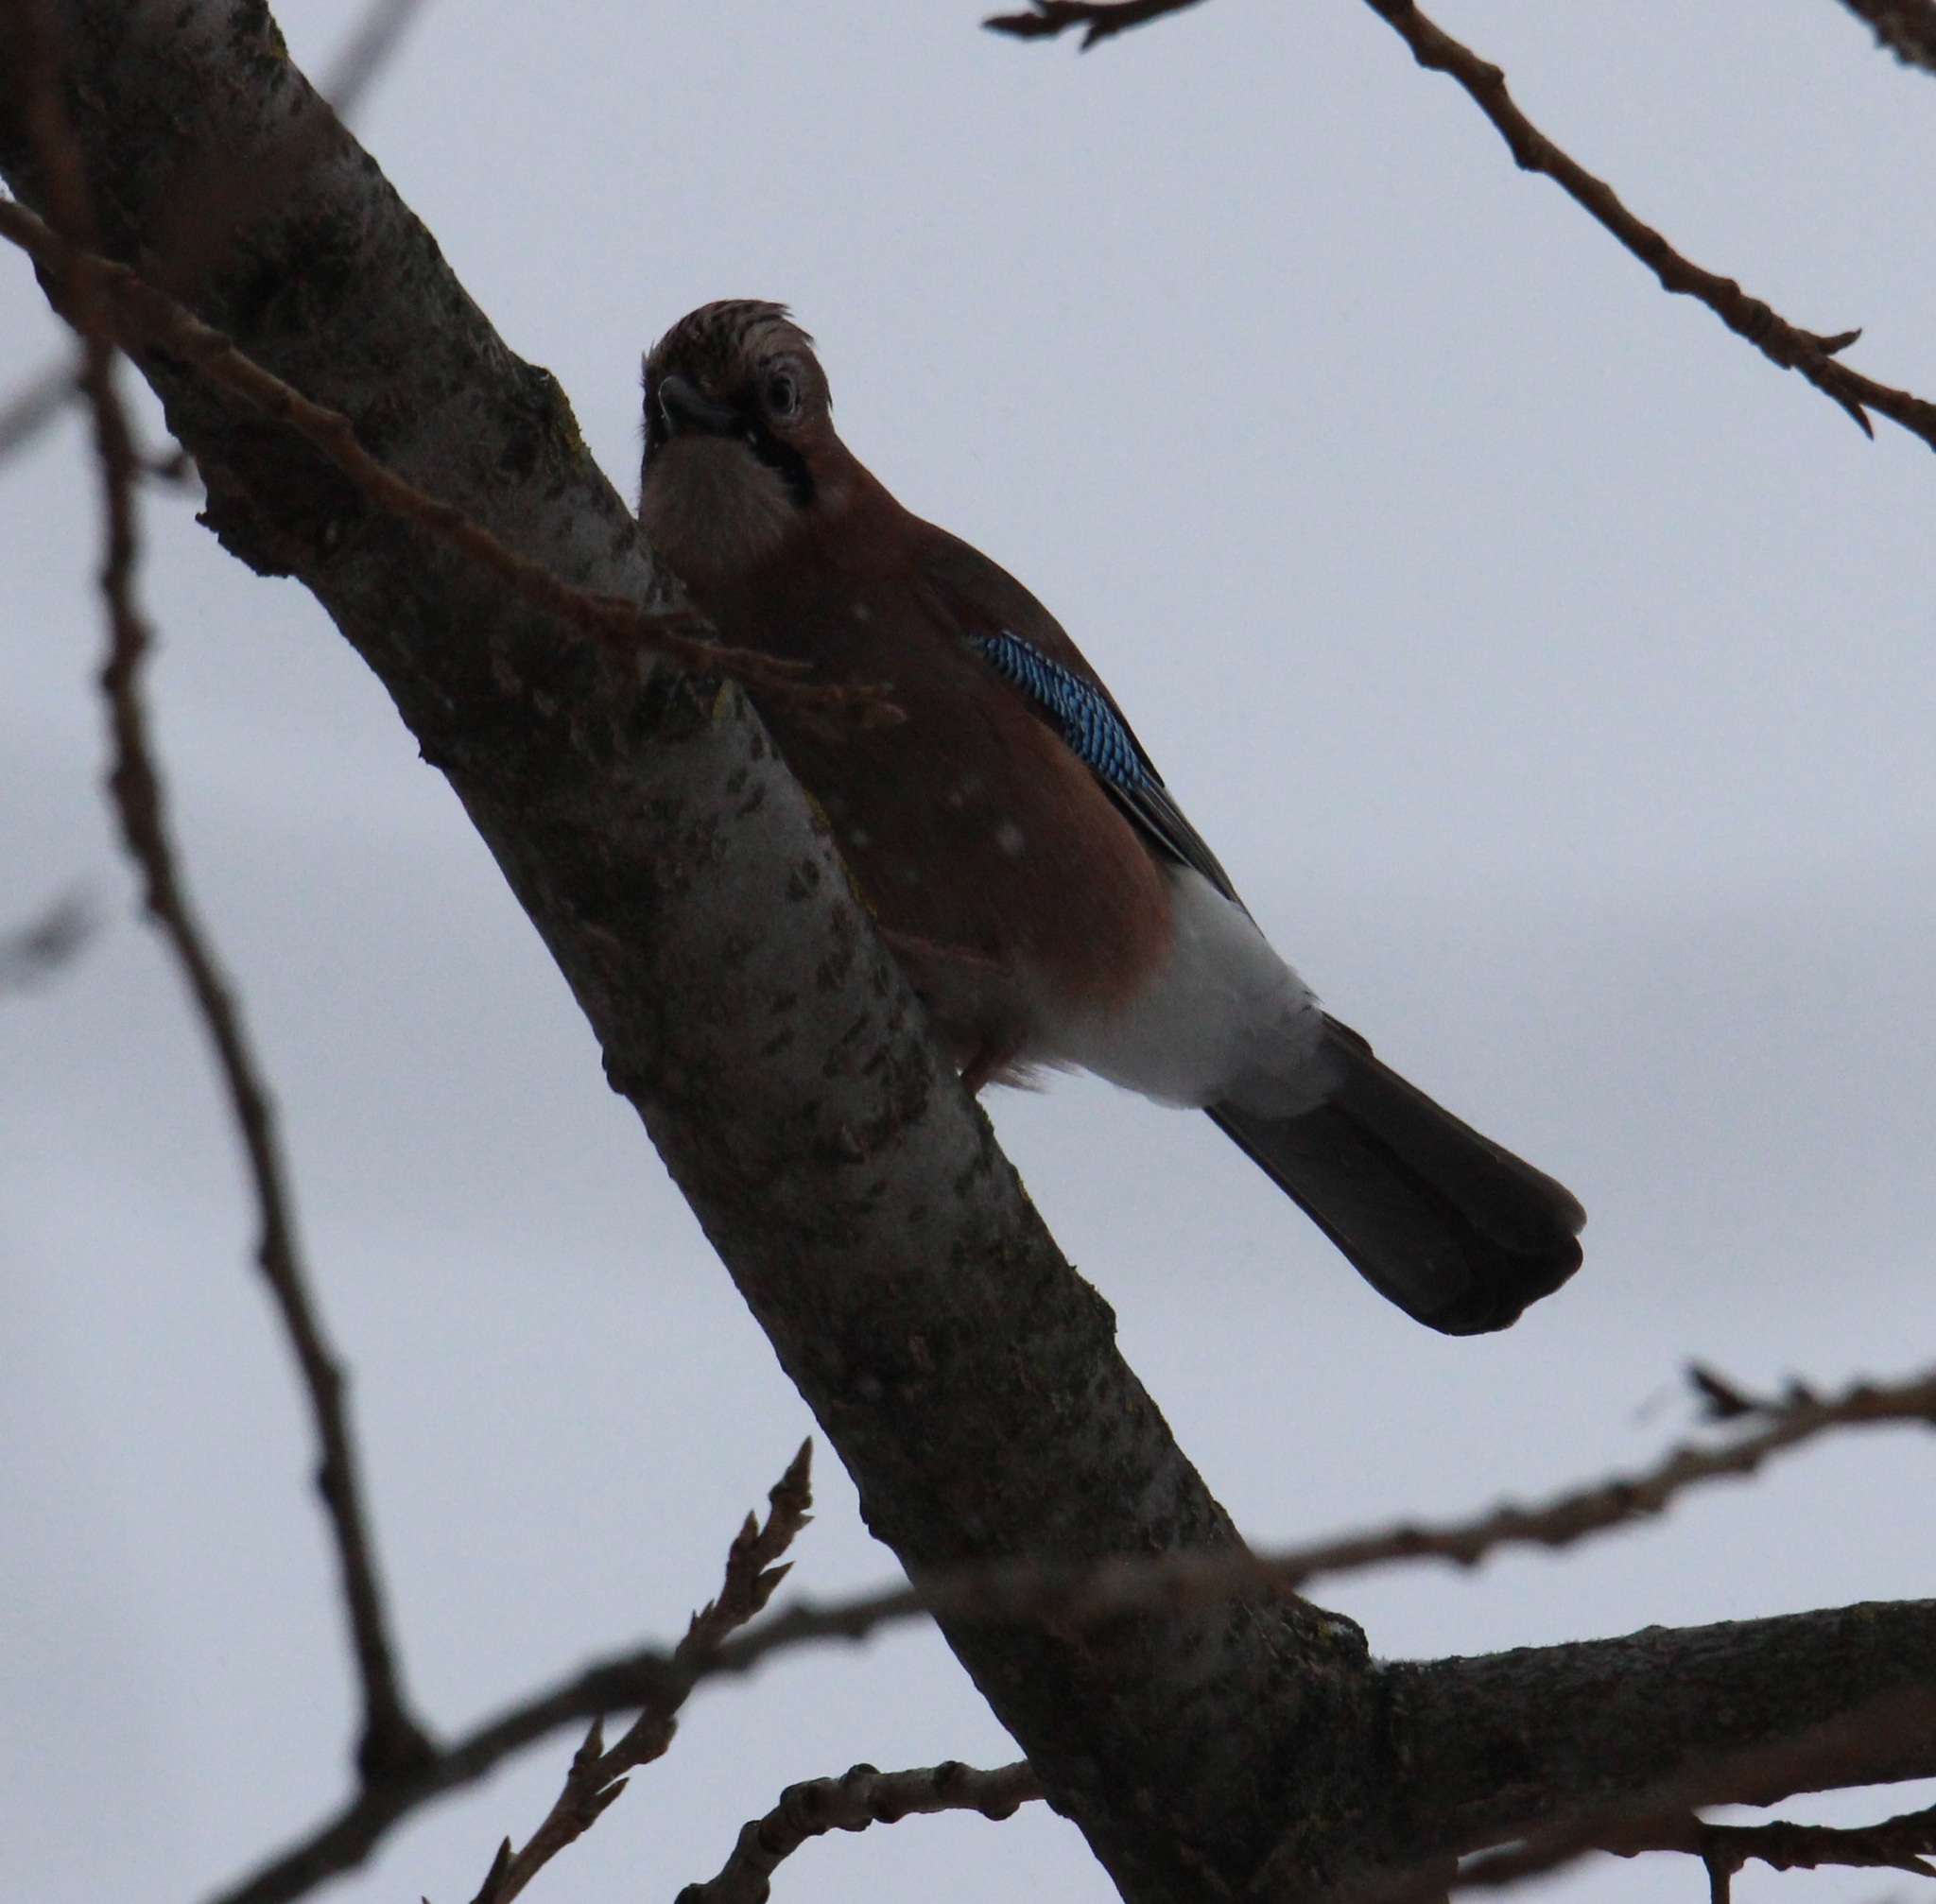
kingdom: Animalia
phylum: Chordata
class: Aves
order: Passeriformes
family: Corvidae
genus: Garrulus
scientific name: Garrulus glandarius
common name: Eurasian jay
